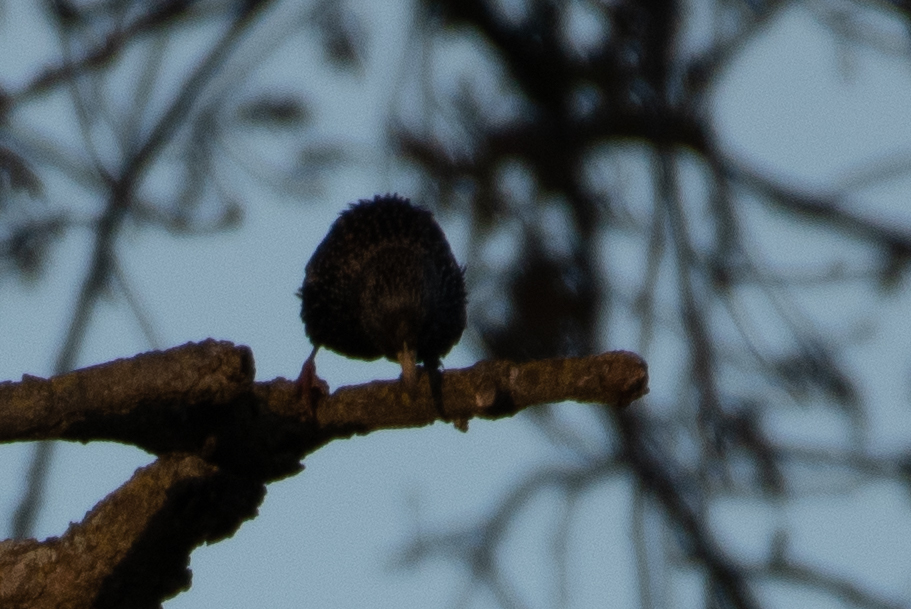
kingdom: Animalia
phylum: Chordata
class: Aves
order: Passeriformes
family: Sturnidae
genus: Sturnus
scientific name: Sturnus vulgaris
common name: Common starling
